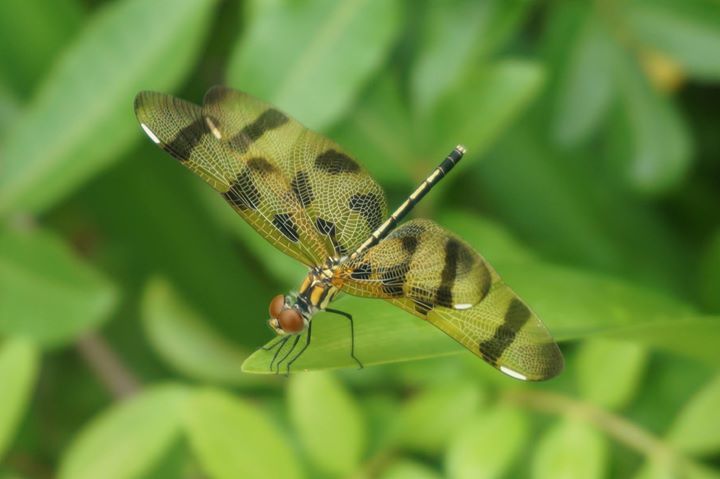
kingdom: Animalia
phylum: Arthropoda
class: Insecta
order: Odonata
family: Libellulidae
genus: Celithemis
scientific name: Celithemis eponina
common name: Halloween pennant
